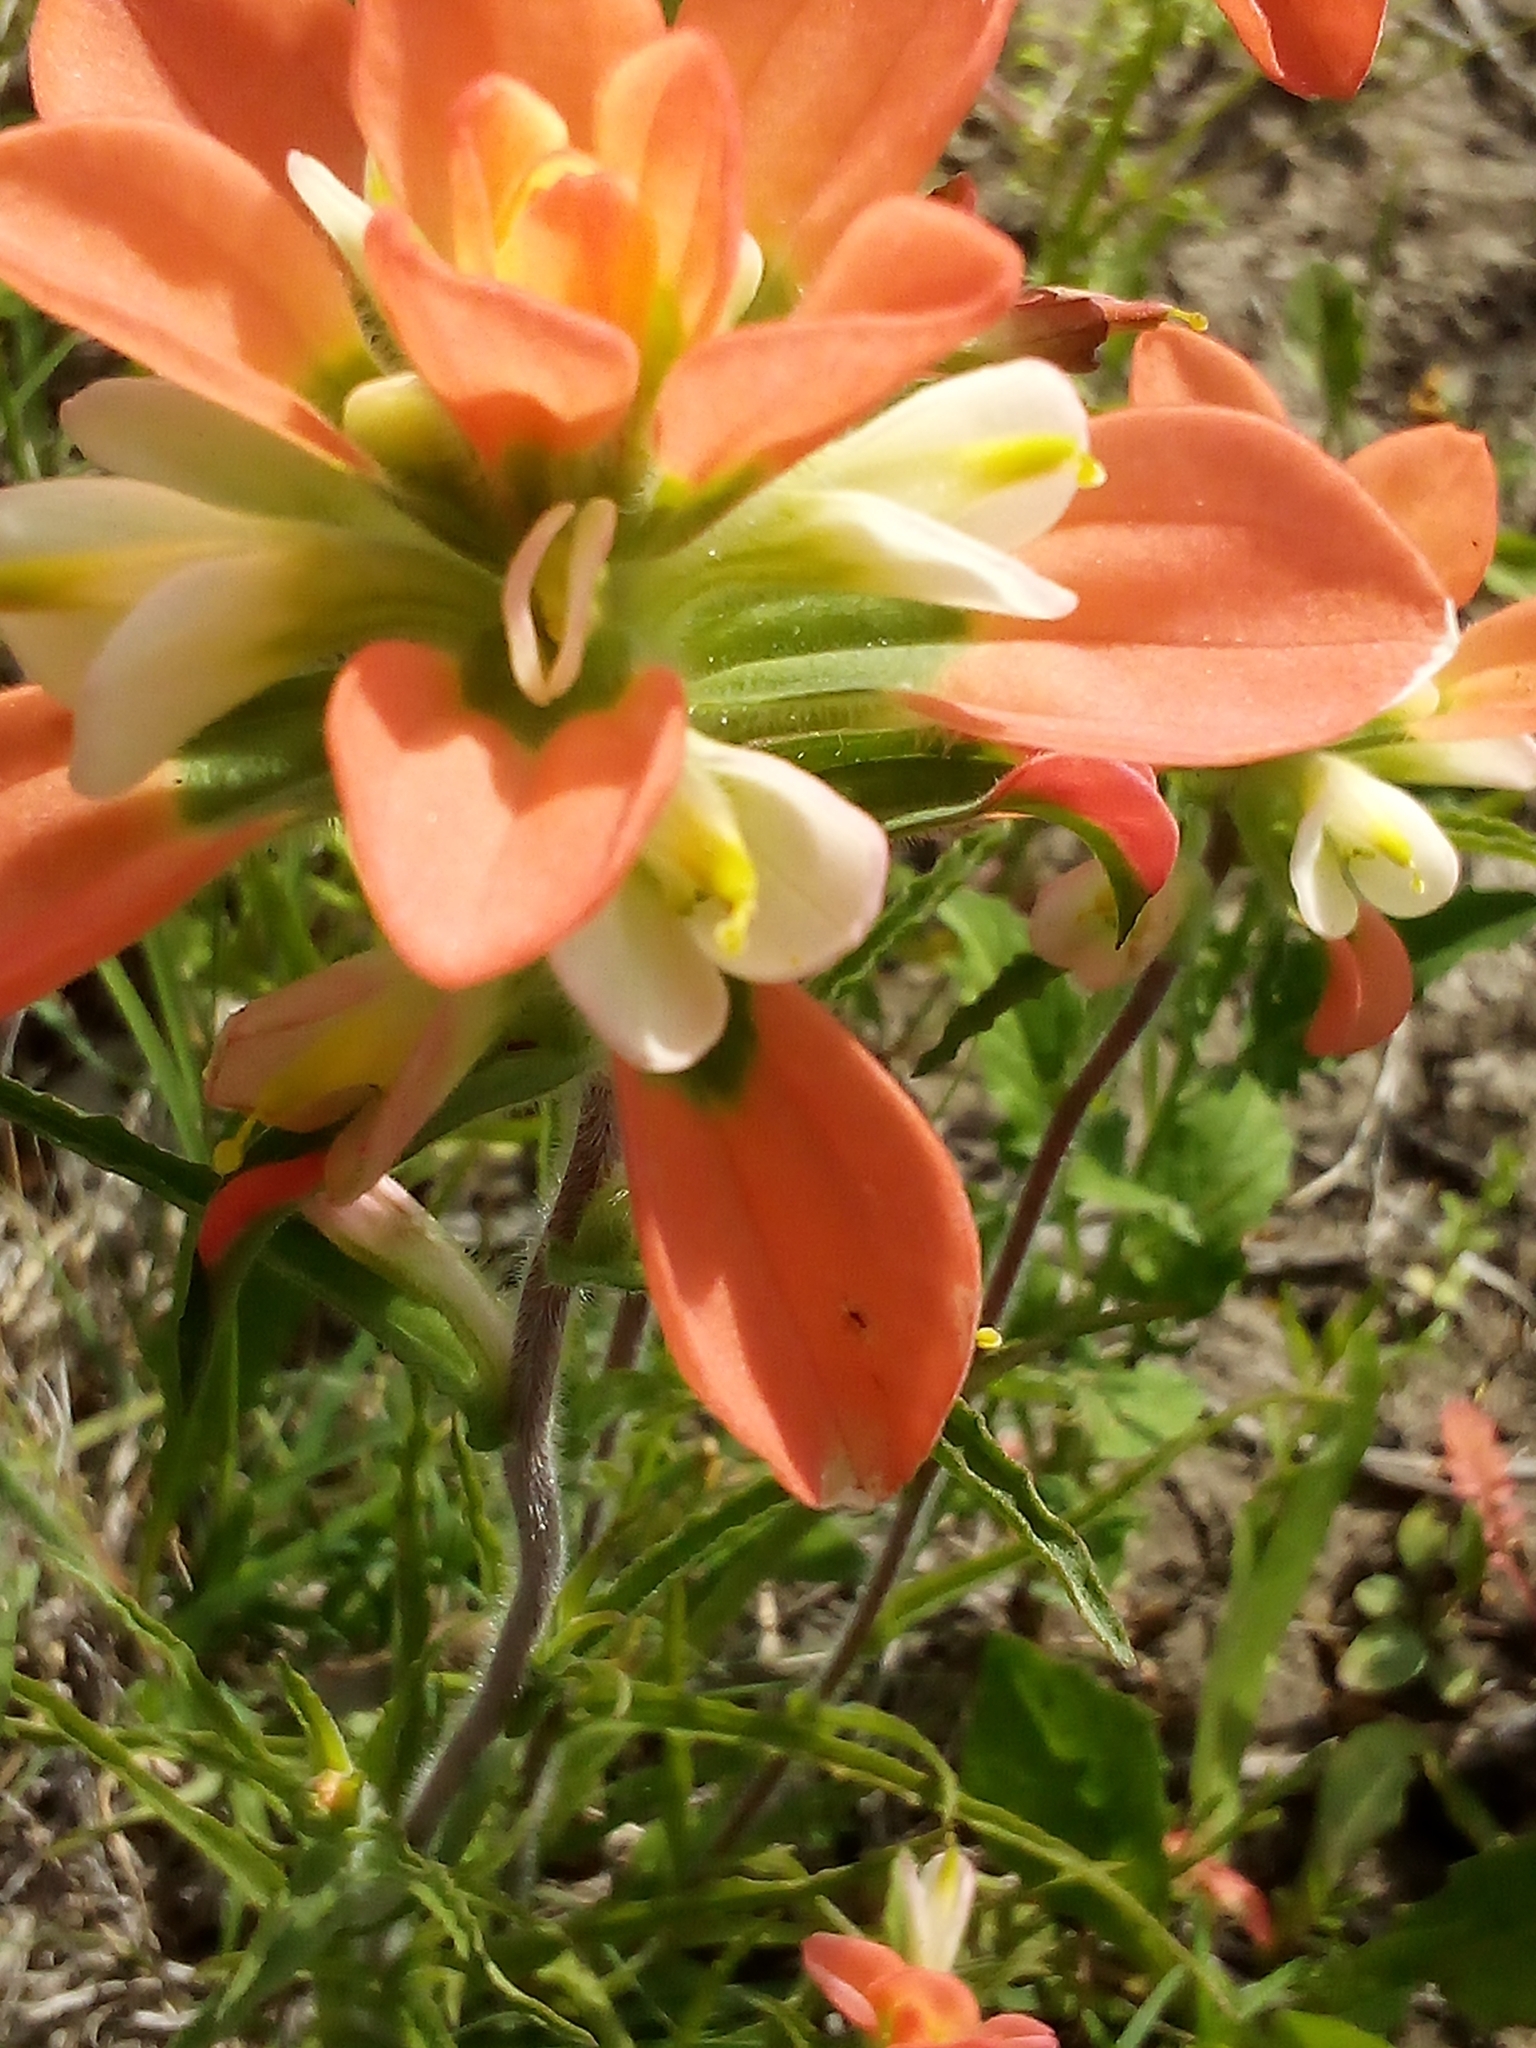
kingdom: Plantae
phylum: Tracheophyta
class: Magnoliopsida
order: Lamiales
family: Orobanchaceae
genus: Castilleja
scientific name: Castilleja indivisa
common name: Texas paintbrush
